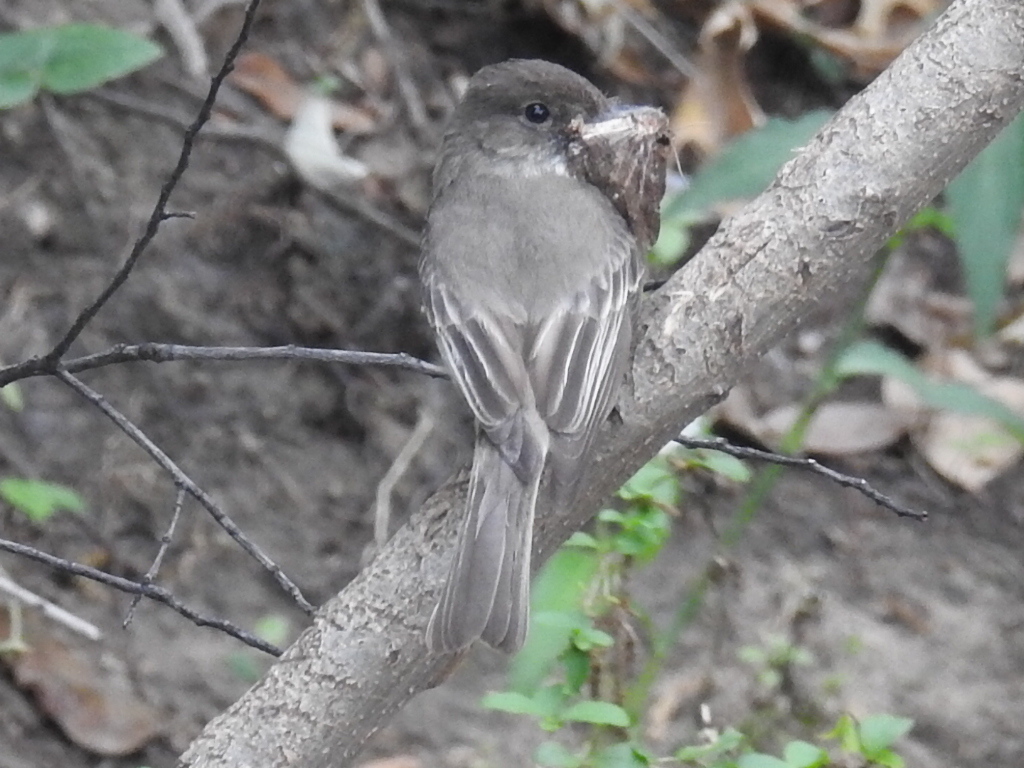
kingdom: Animalia
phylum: Chordata
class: Aves
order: Passeriformes
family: Tyrannidae
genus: Sayornis
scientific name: Sayornis phoebe
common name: Eastern phoebe
